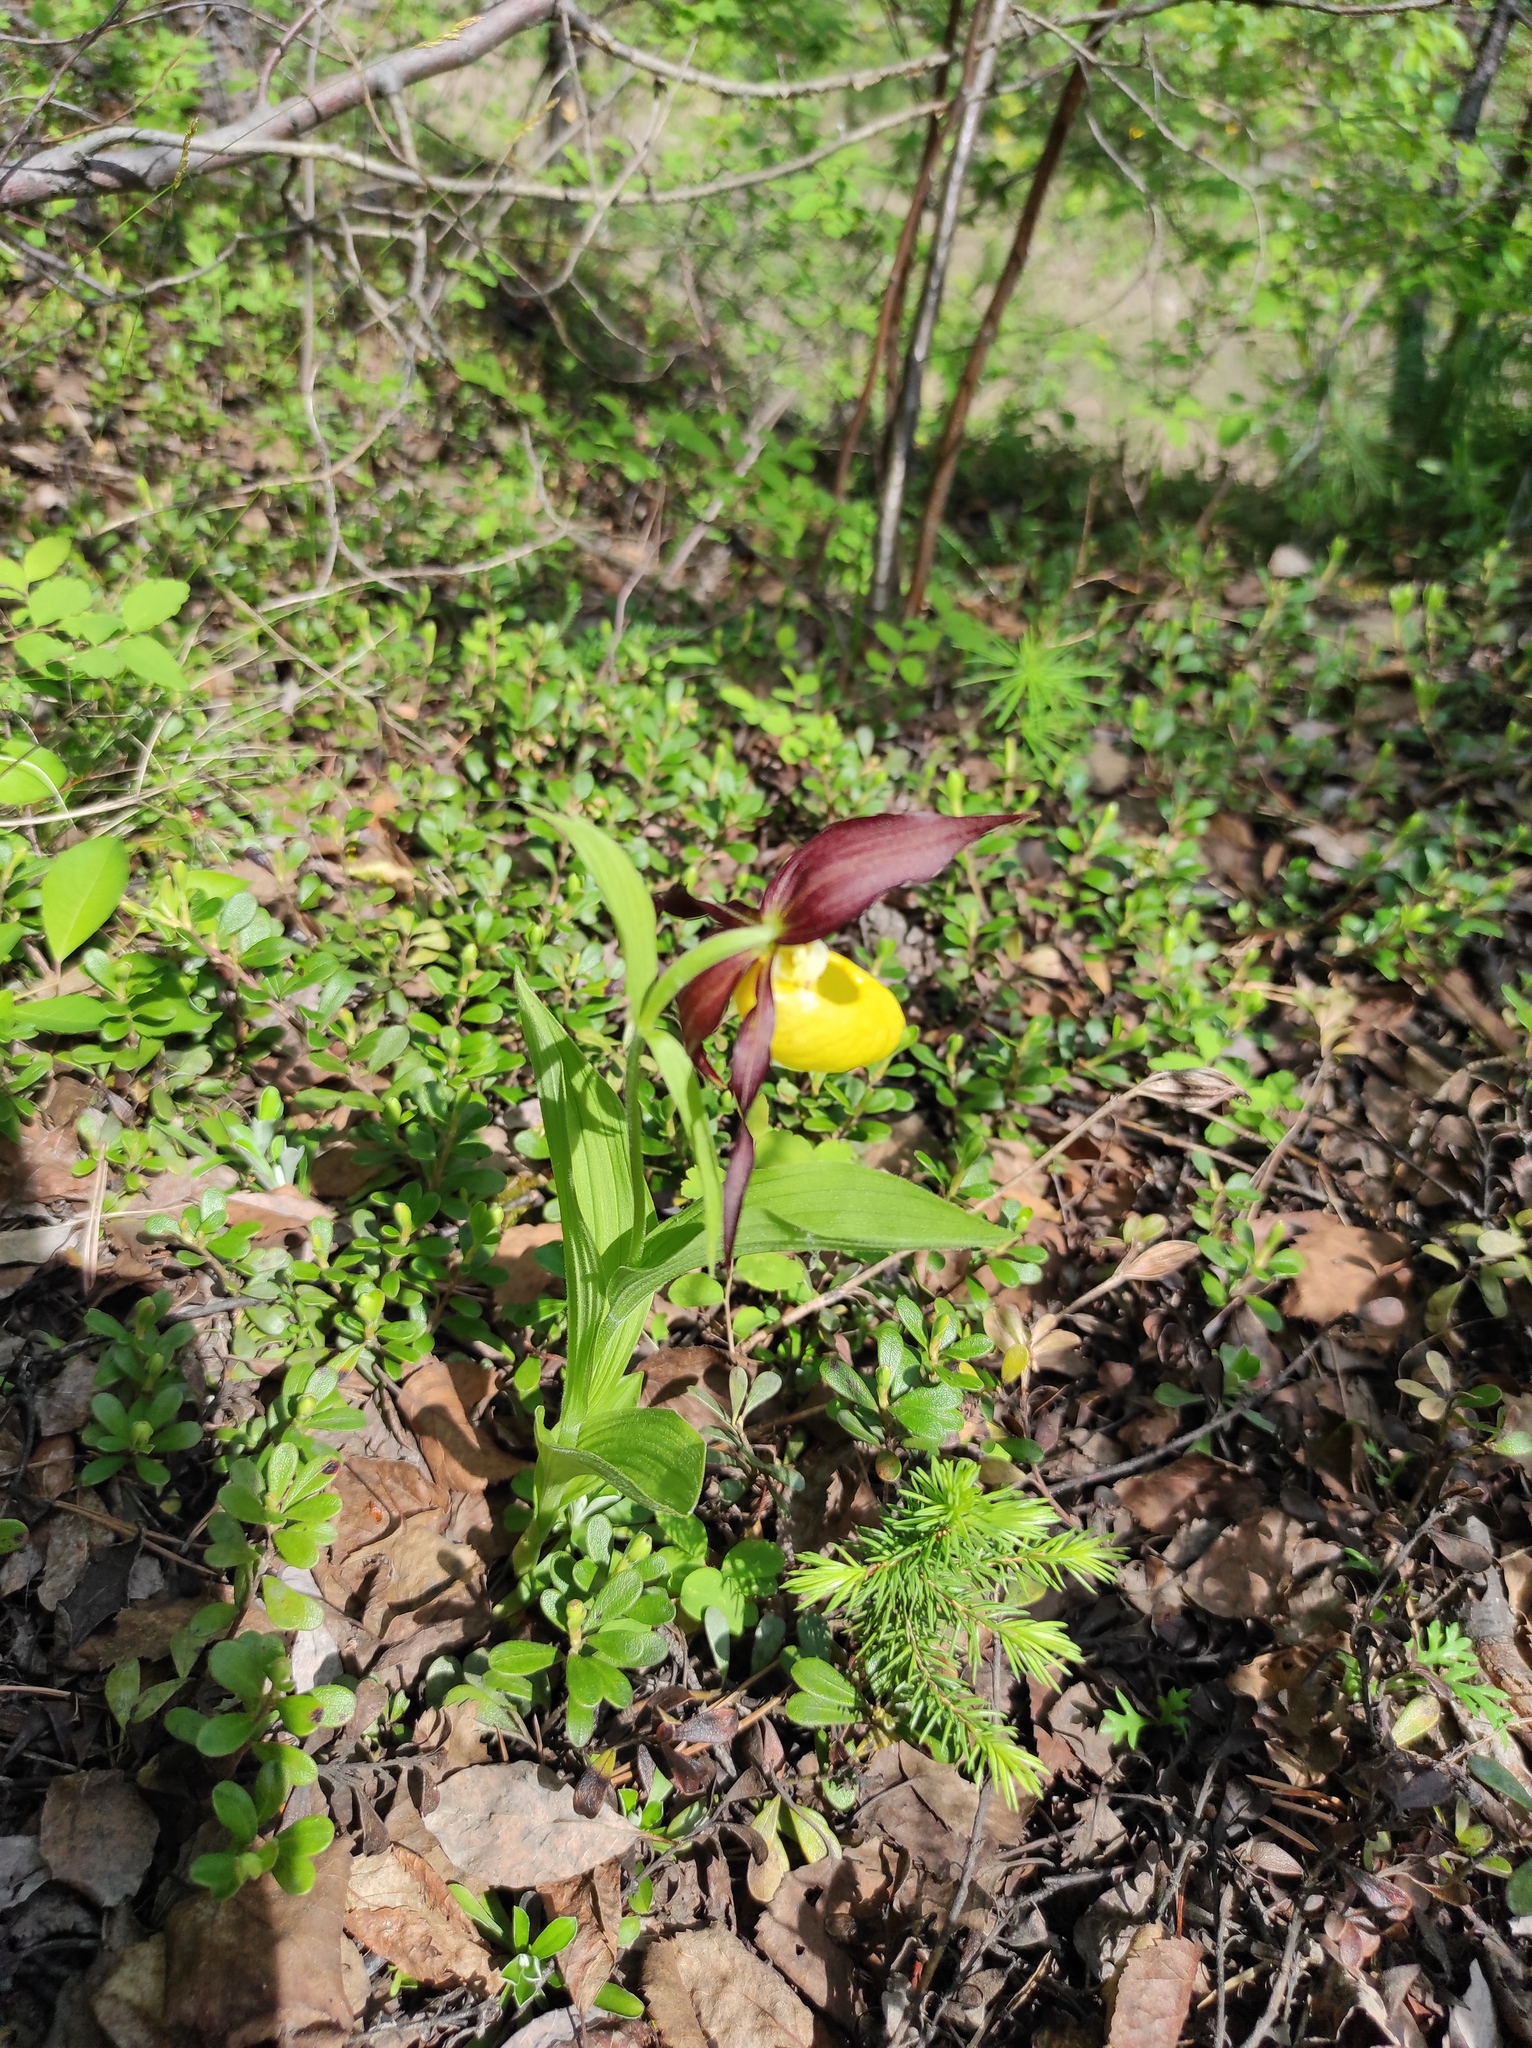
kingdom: Plantae
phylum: Tracheophyta
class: Liliopsida
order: Asparagales
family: Orchidaceae
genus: Cypripedium
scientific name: Cypripedium calceolus
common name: Lady's-slipper
